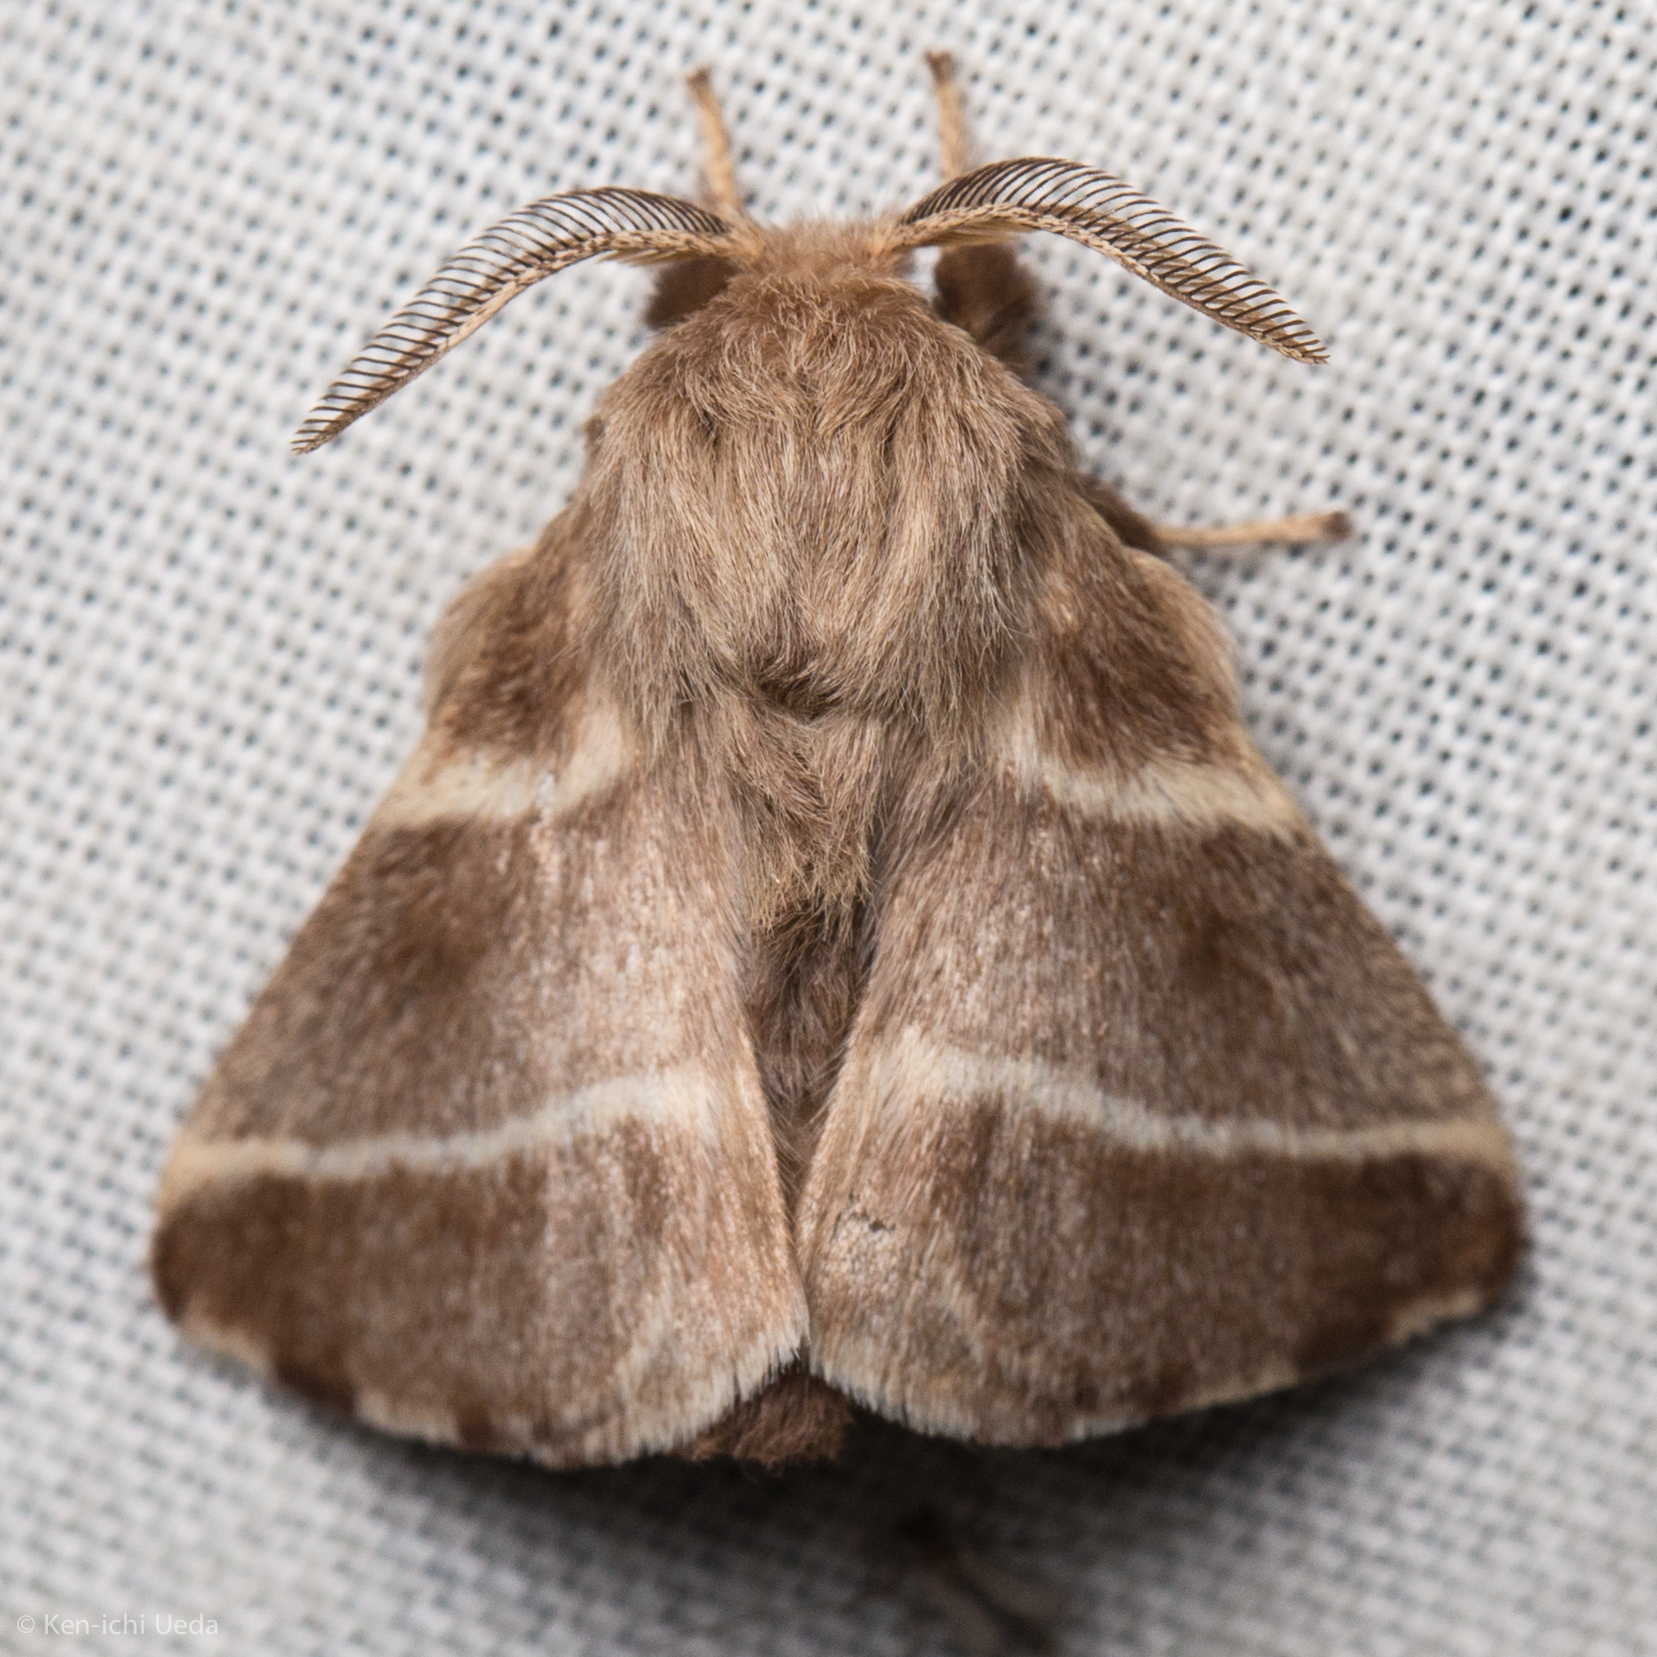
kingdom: Animalia
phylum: Arthropoda
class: Insecta
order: Lepidoptera
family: Lasiocampidae
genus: Malacosoma
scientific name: Malacosoma americana
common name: Eastern tent caterpillar moth
